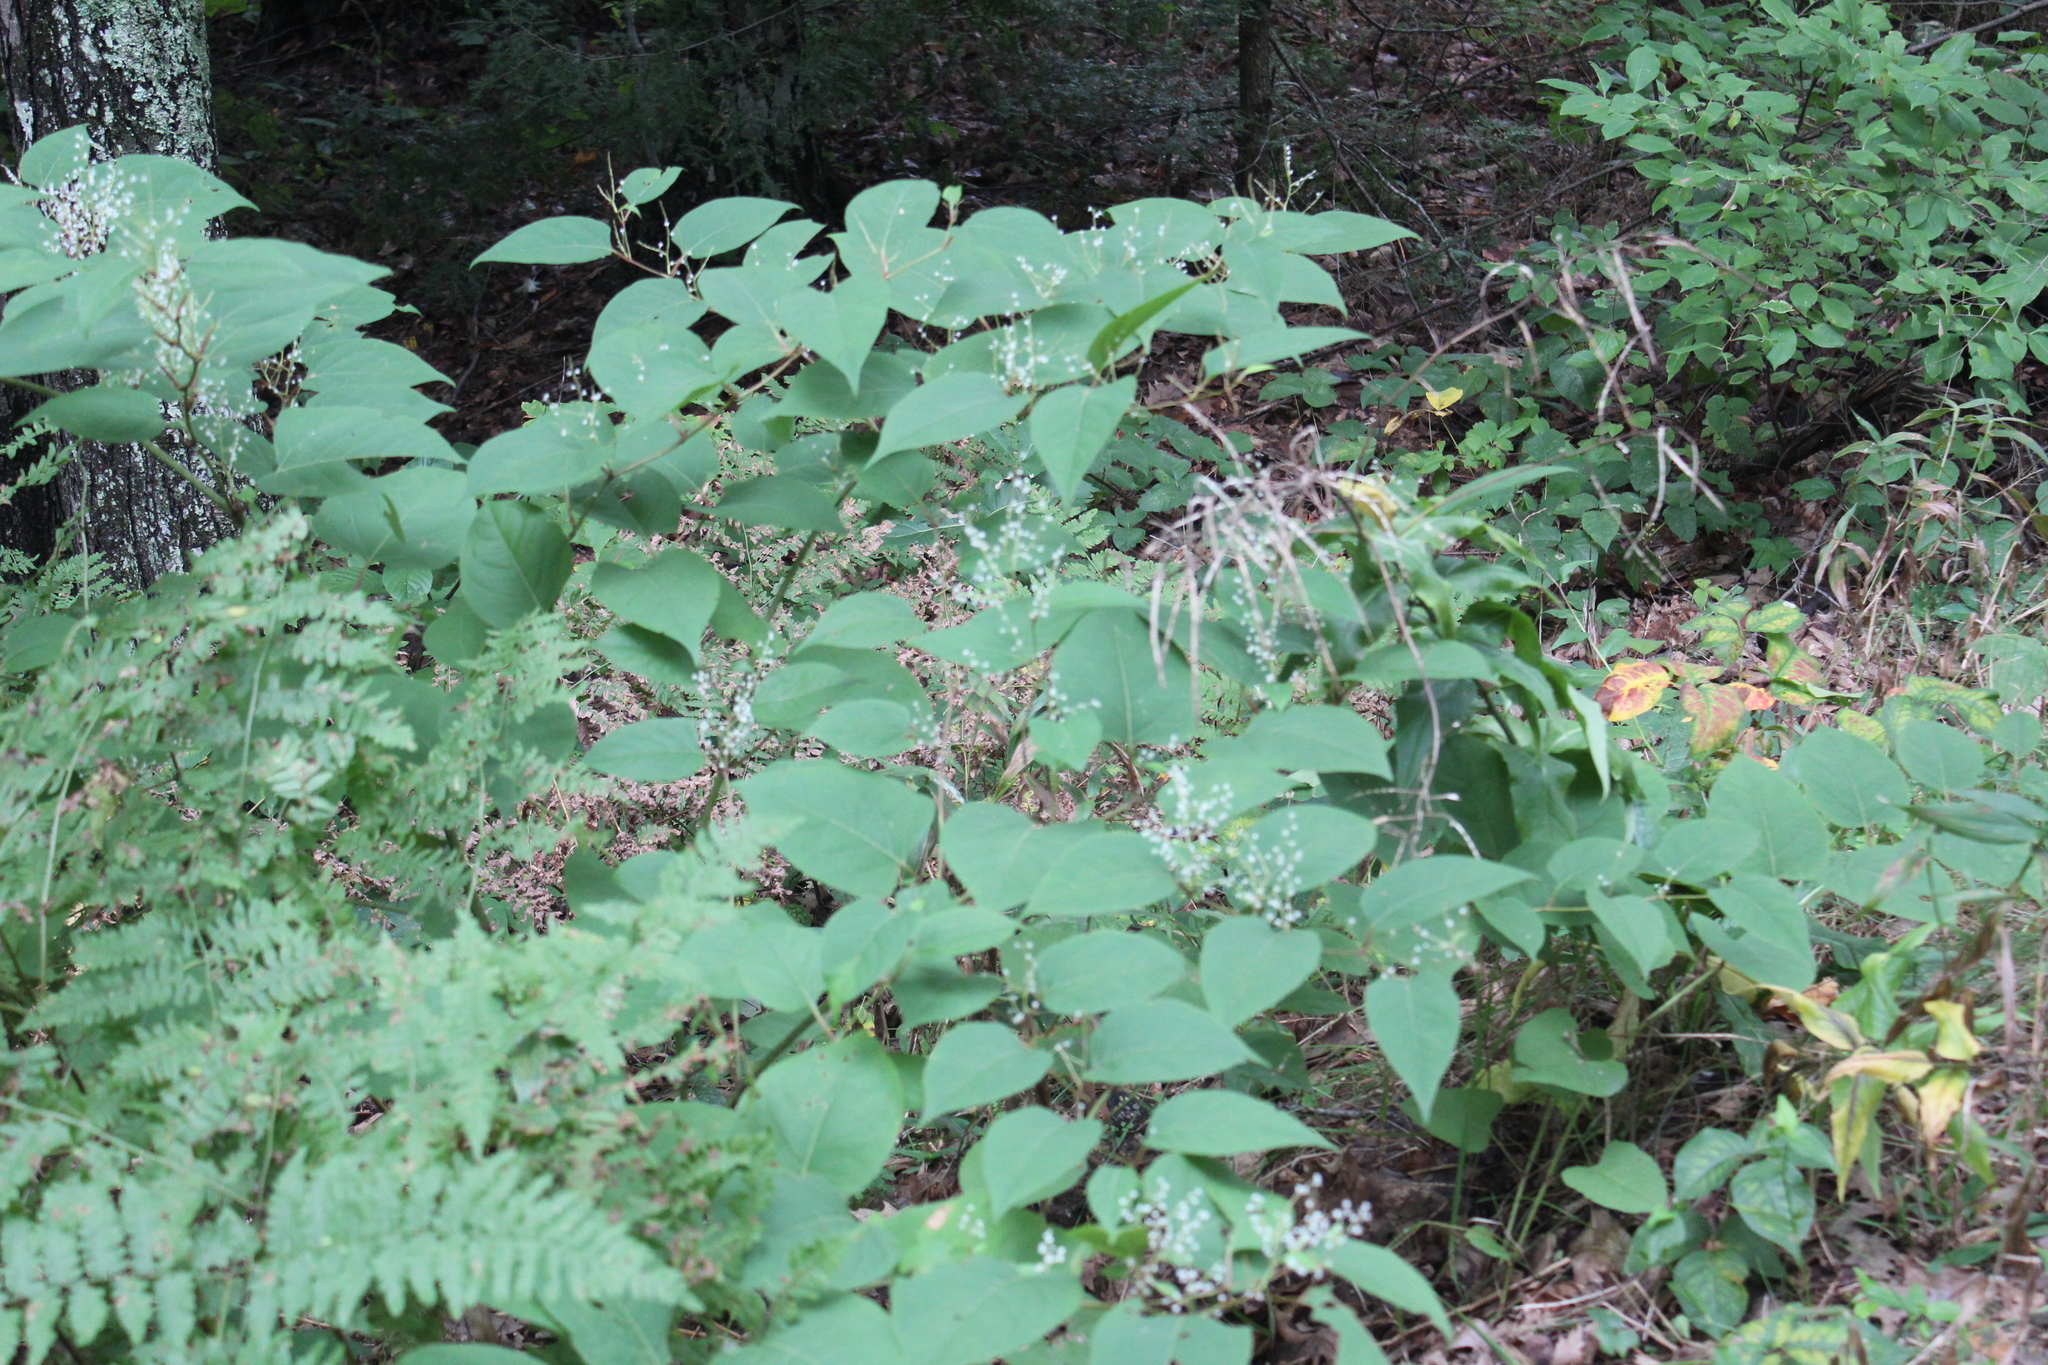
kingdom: Plantae
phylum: Tracheophyta
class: Magnoliopsida
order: Caryophyllales
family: Polygonaceae
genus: Reynoutria
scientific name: Reynoutria japonica
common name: Japanese knotweed
